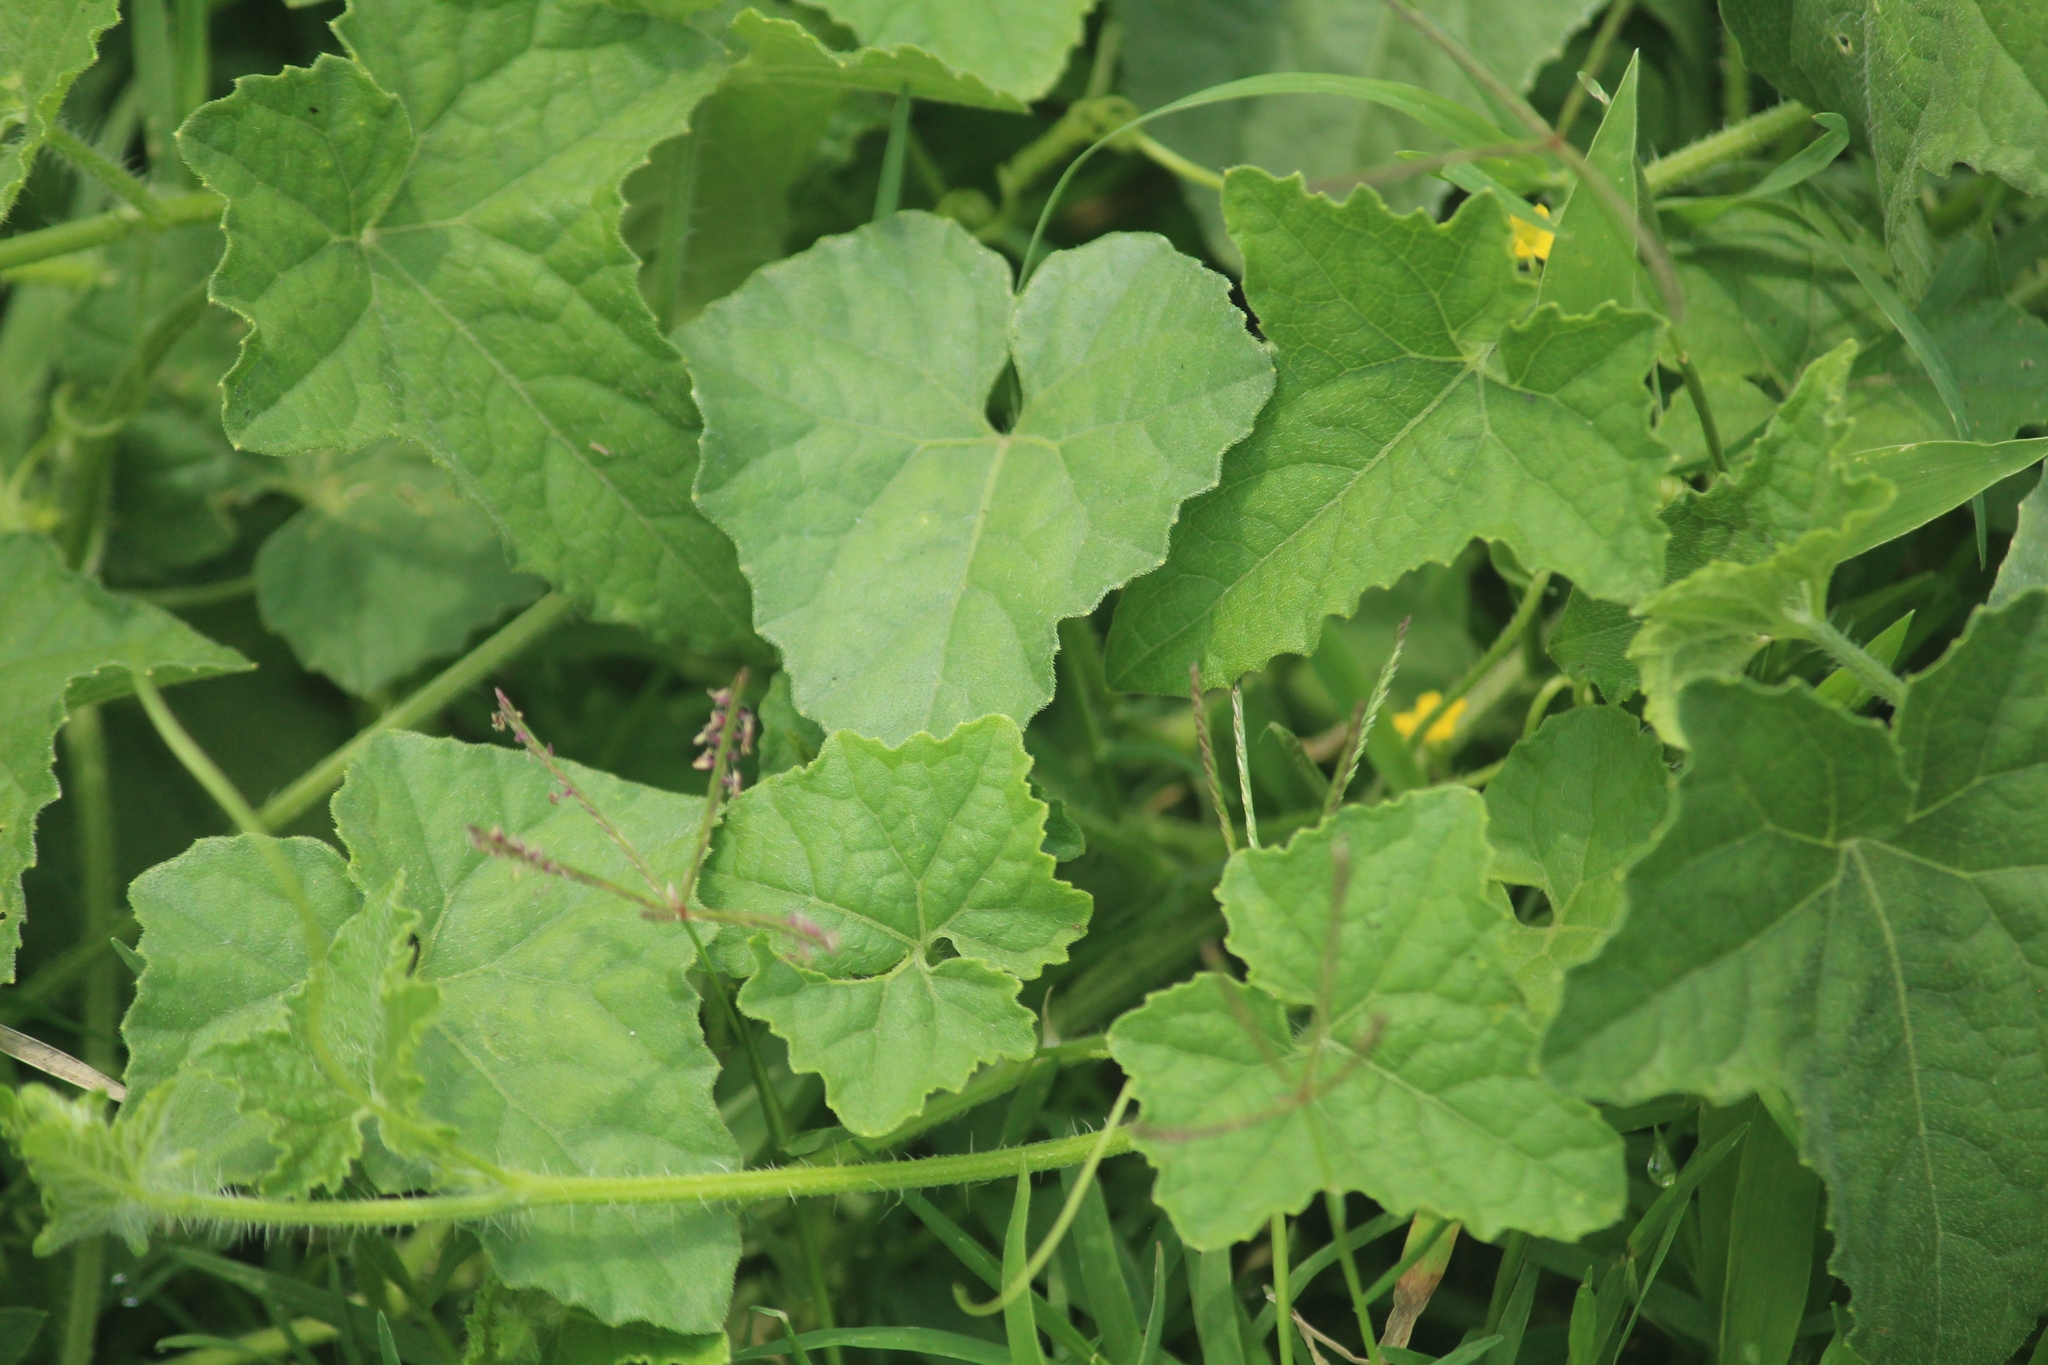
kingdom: Plantae
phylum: Tracheophyta
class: Magnoliopsida
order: Cucurbitales
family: Cucurbitaceae
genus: Cucumis
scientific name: Cucumis maderaspatanus
